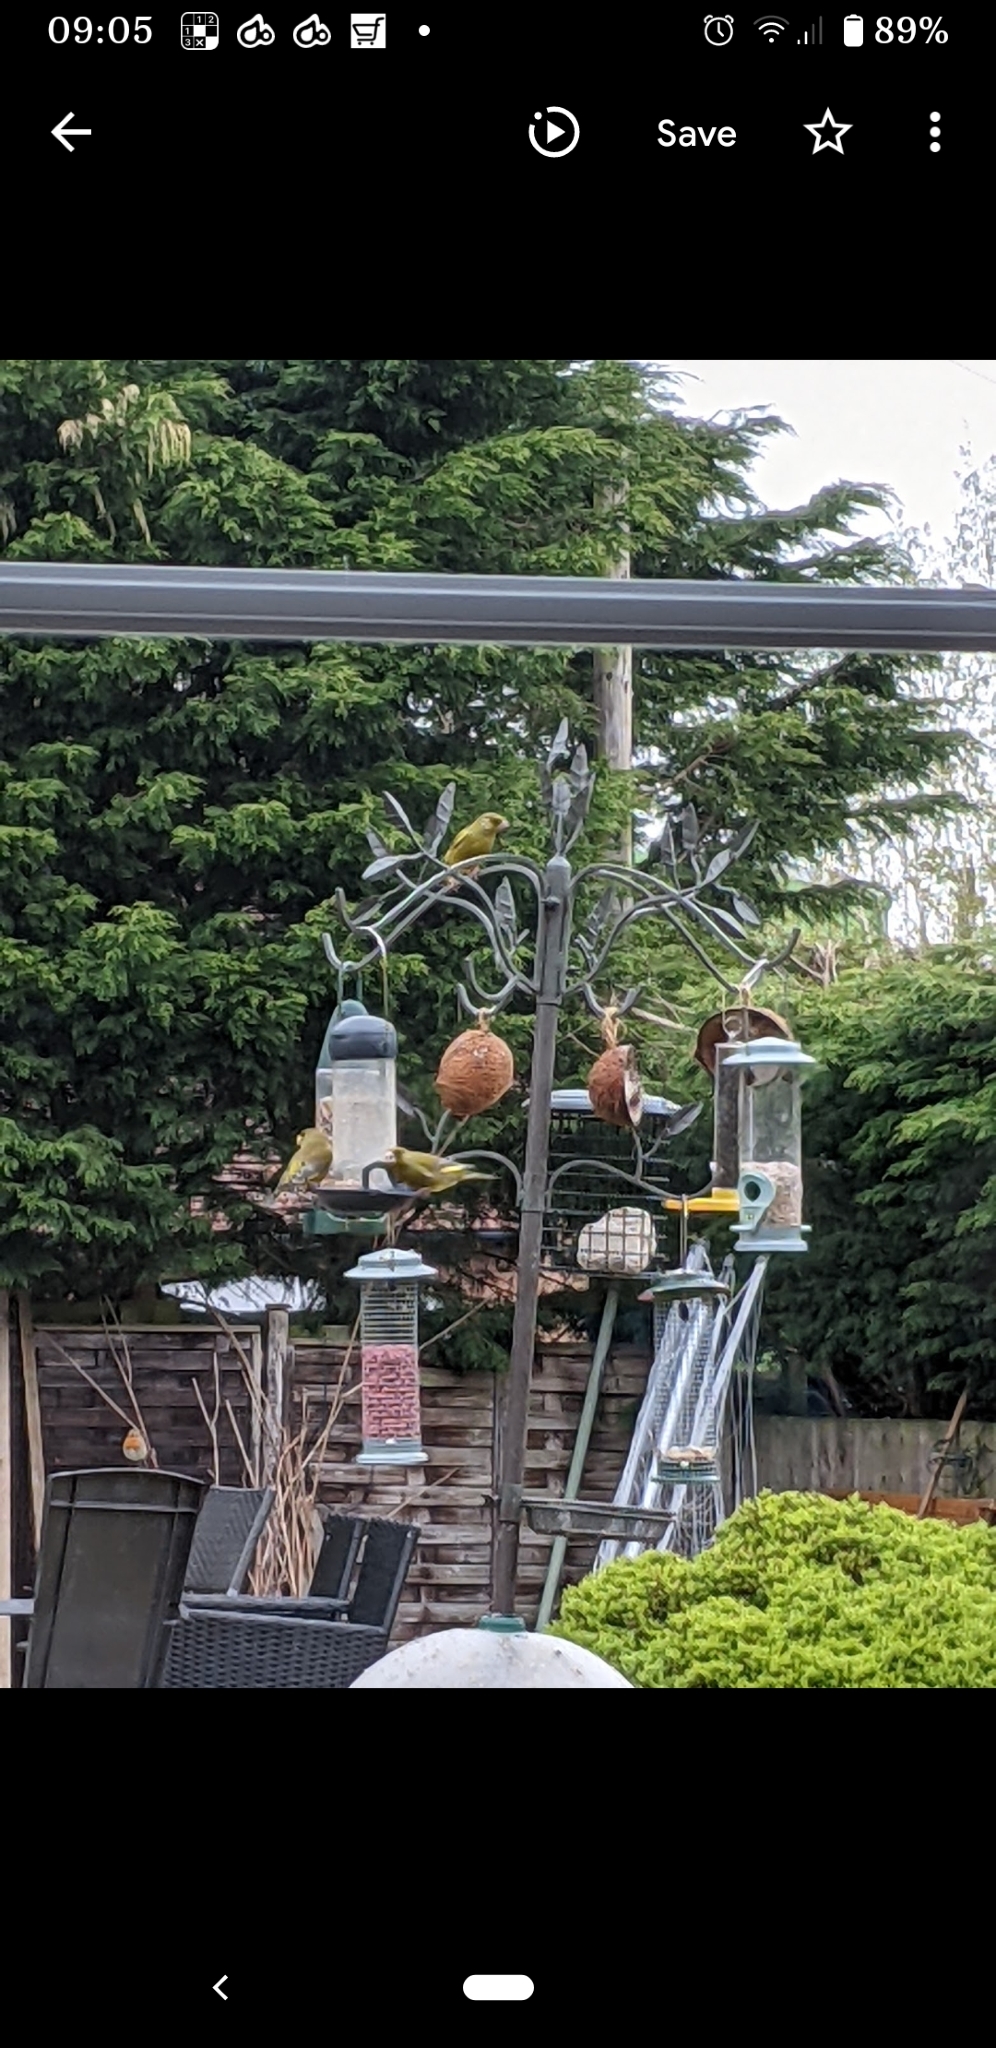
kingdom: Plantae
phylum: Tracheophyta
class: Liliopsida
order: Poales
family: Poaceae
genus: Chloris
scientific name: Chloris chloris
